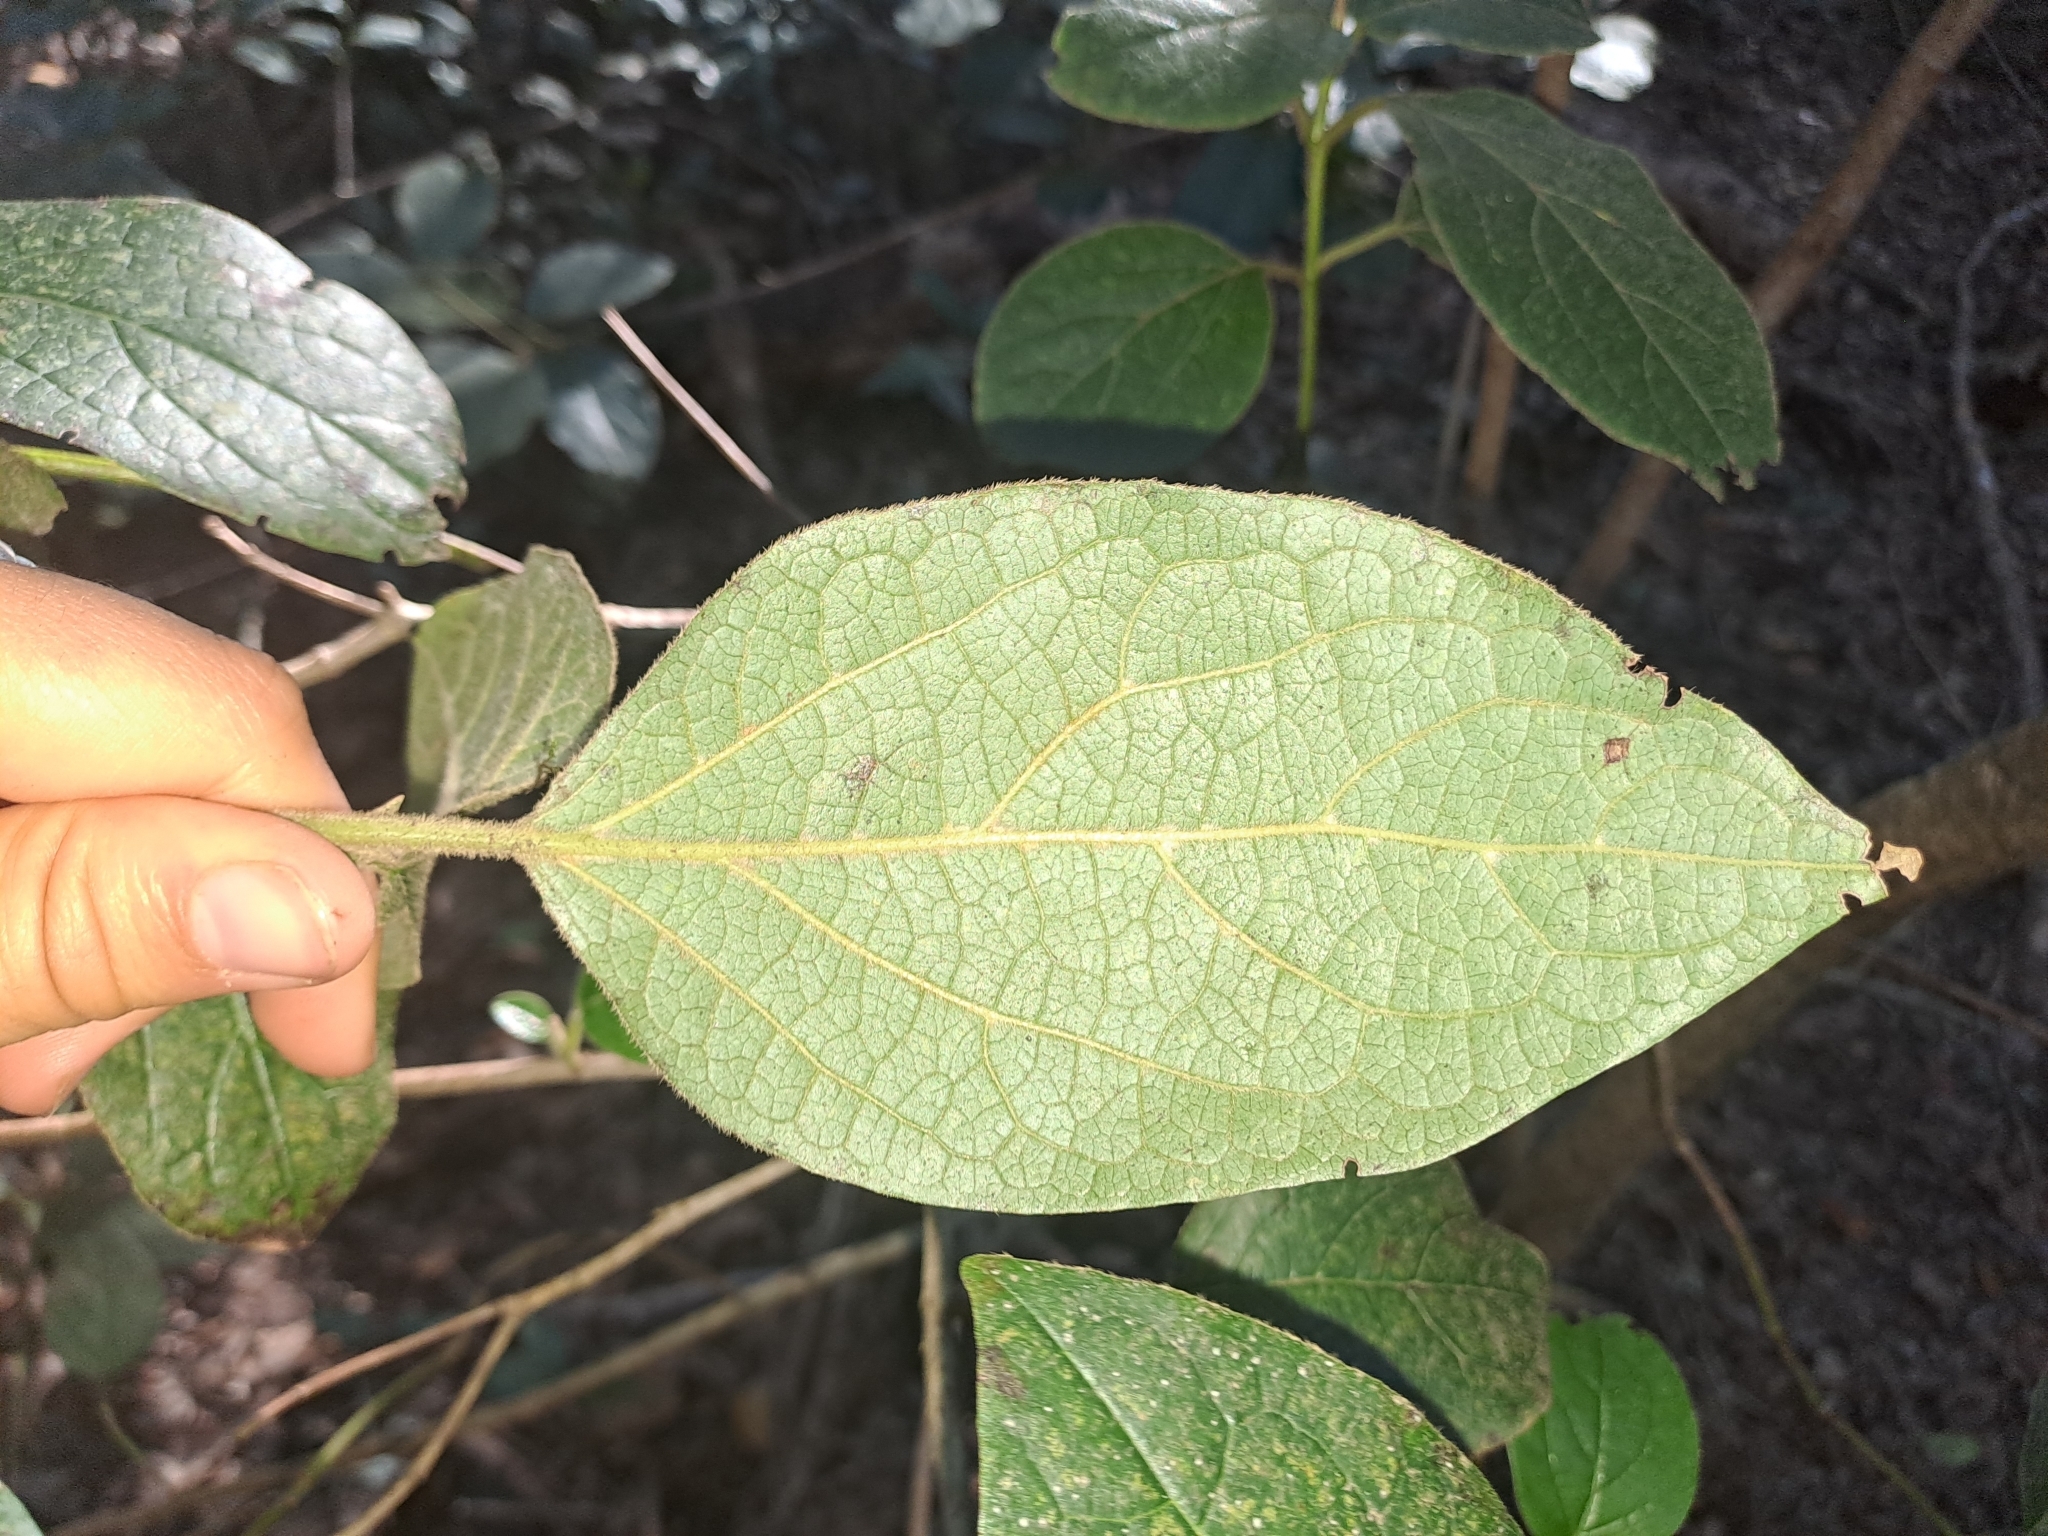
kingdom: Plantae
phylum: Tracheophyta
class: Magnoliopsida
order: Dipsacales
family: Viburnaceae
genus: Viburnum
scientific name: Viburnum rugosum
